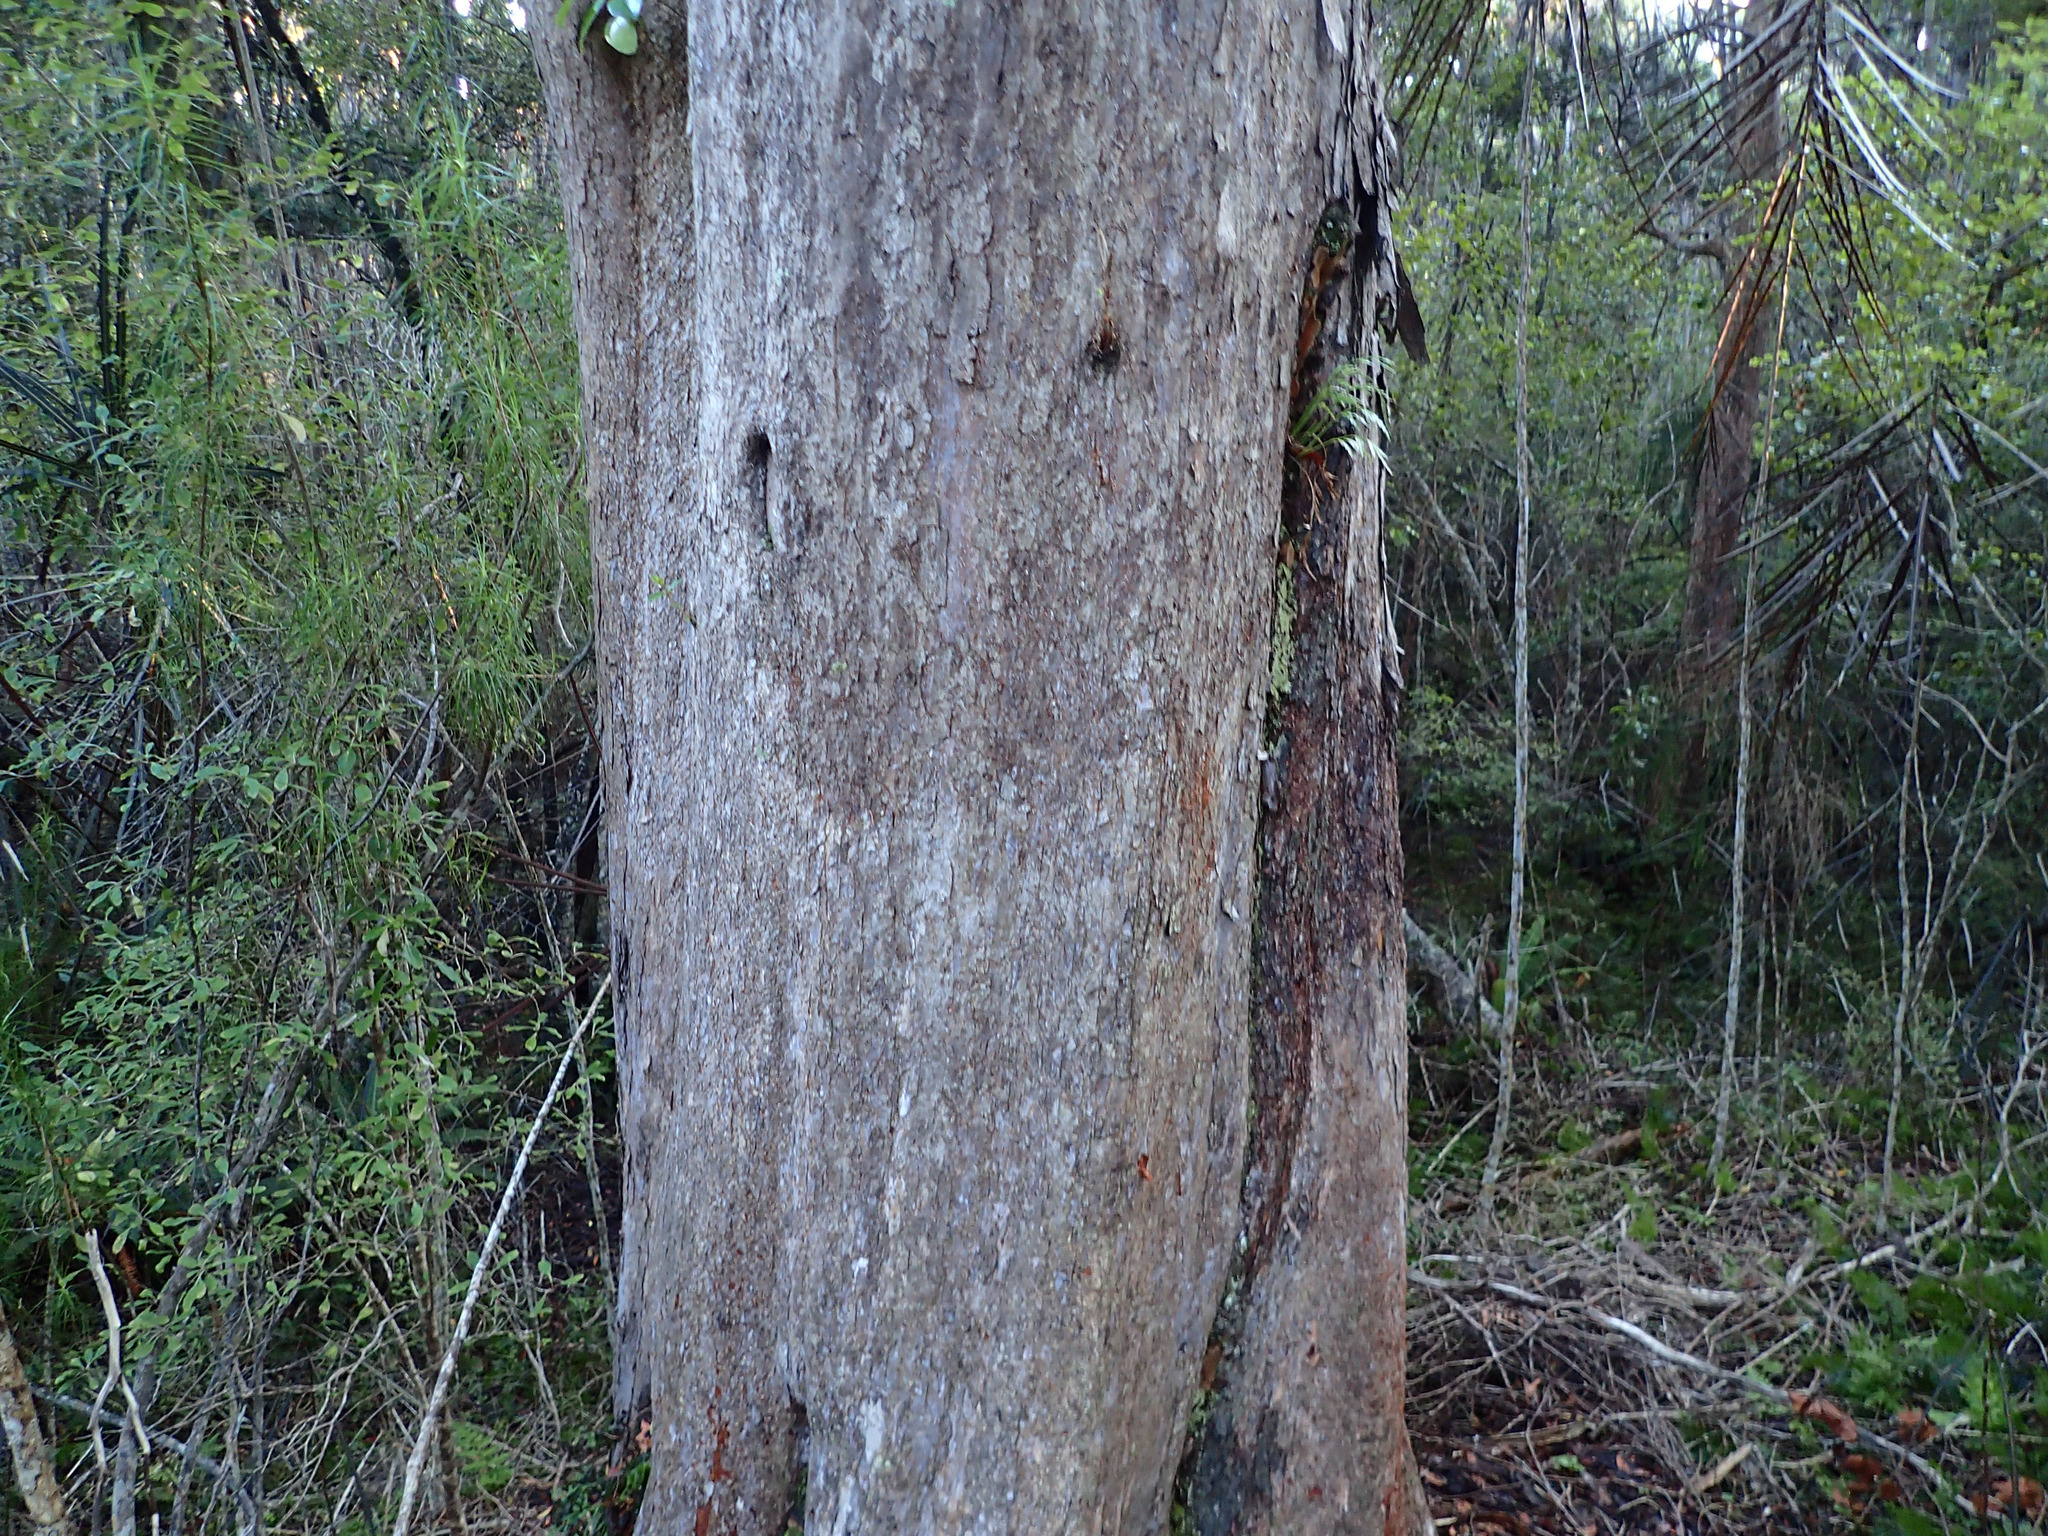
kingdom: Plantae
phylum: Tracheophyta
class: Magnoliopsida
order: Myrtales
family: Myrtaceae
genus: Metrosideros
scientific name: Metrosideros umbellata
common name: Southern rata
